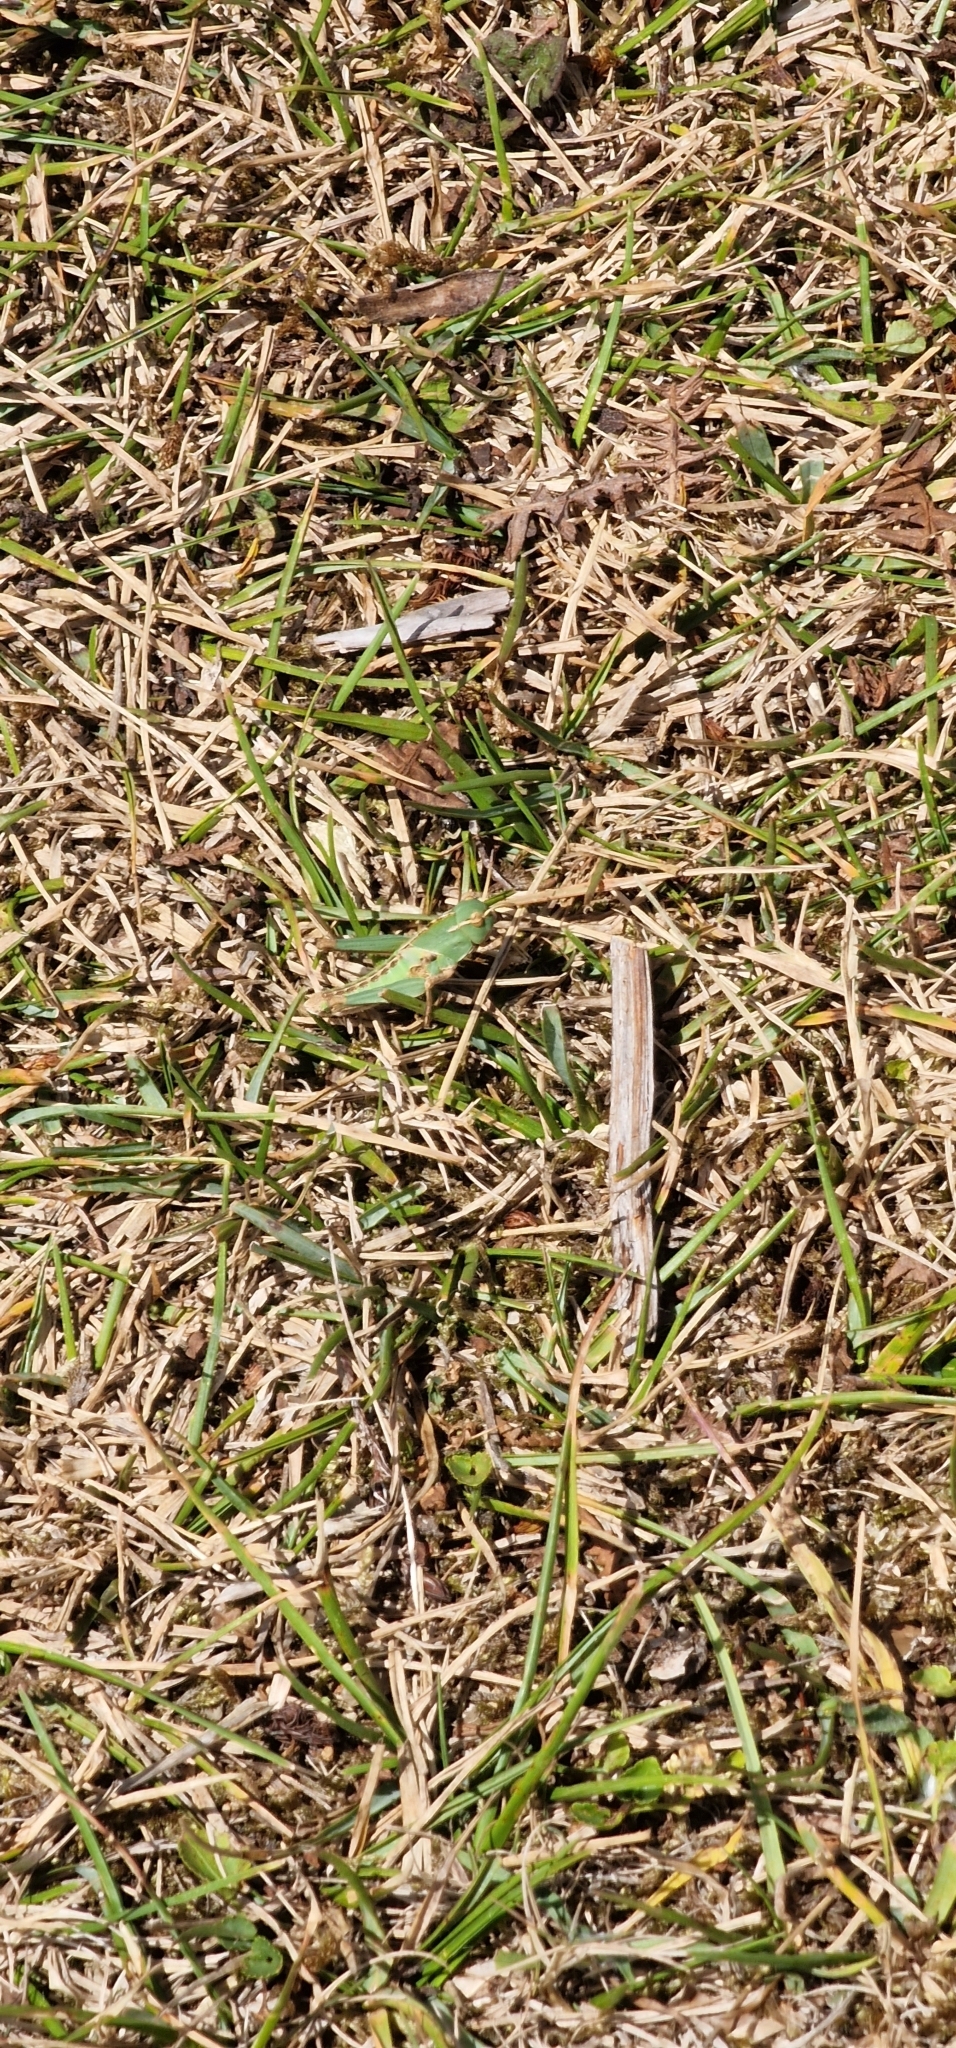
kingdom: Animalia
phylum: Arthropoda
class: Insecta
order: Orthoptera
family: Acrididae
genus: Locusta
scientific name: Locusta migratoria
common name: Migratory locust
